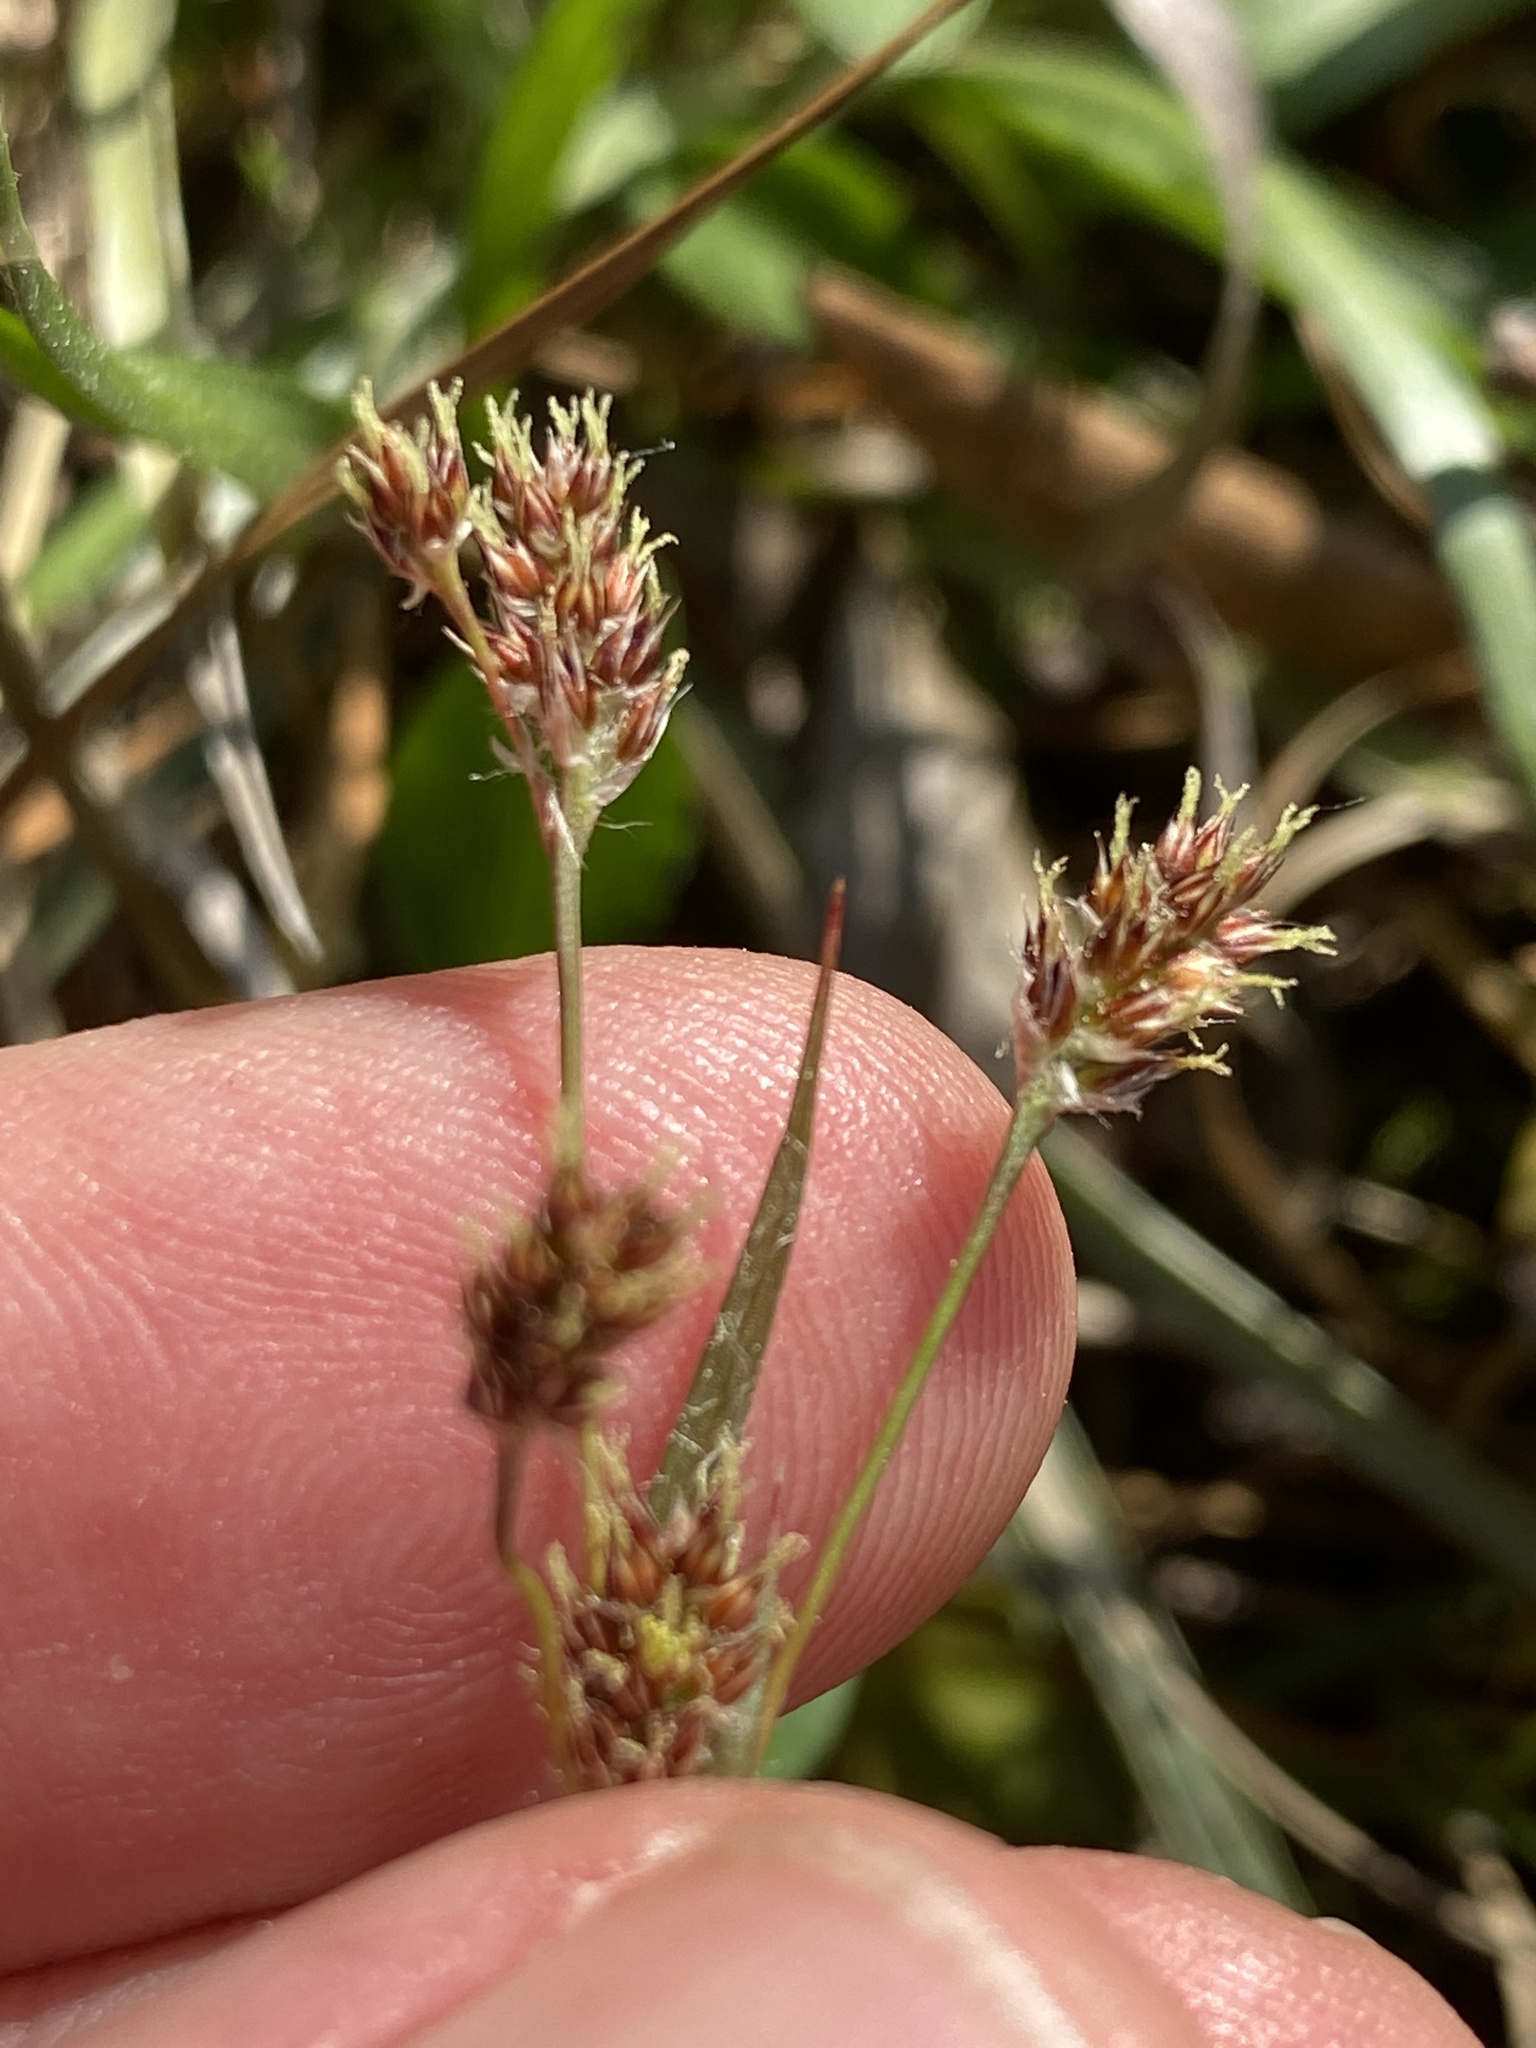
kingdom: Plantae
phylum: Tracheophyta
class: Liliopsida
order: Poales
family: Juncaceae
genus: Luzula
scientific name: Luzula multiflora
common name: Heath wood-rush
